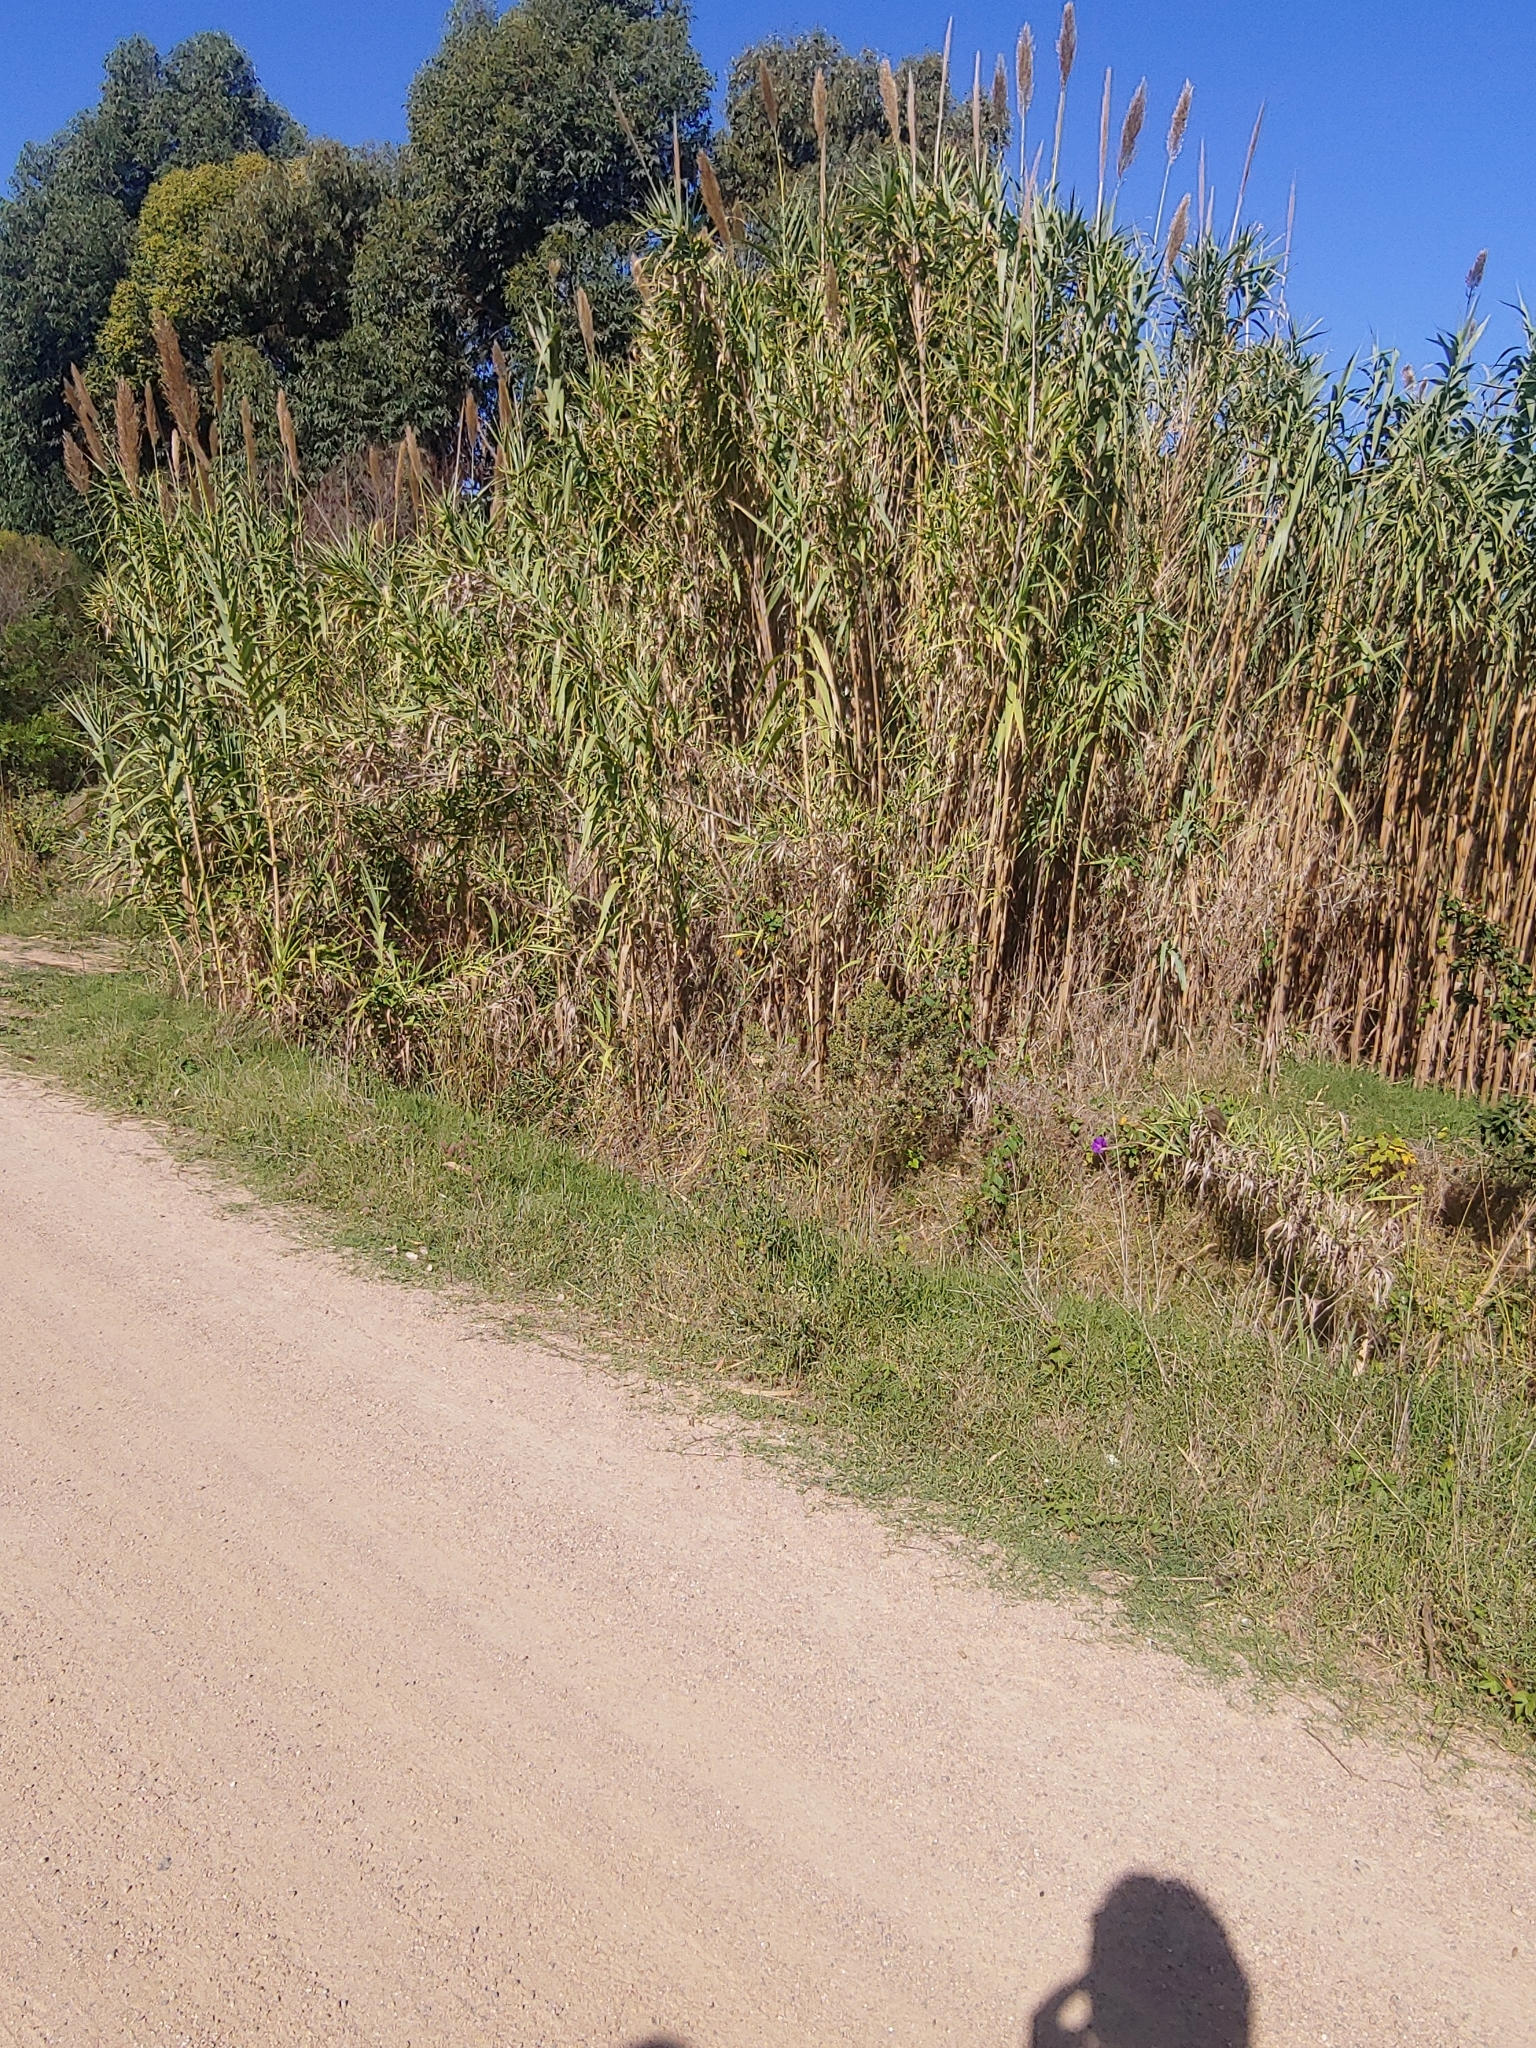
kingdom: Plantae
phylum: Tracheophyta
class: Liliopsida
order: Poales
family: Poaceae
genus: Arundo
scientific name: Arundo donax
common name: Giant reed
